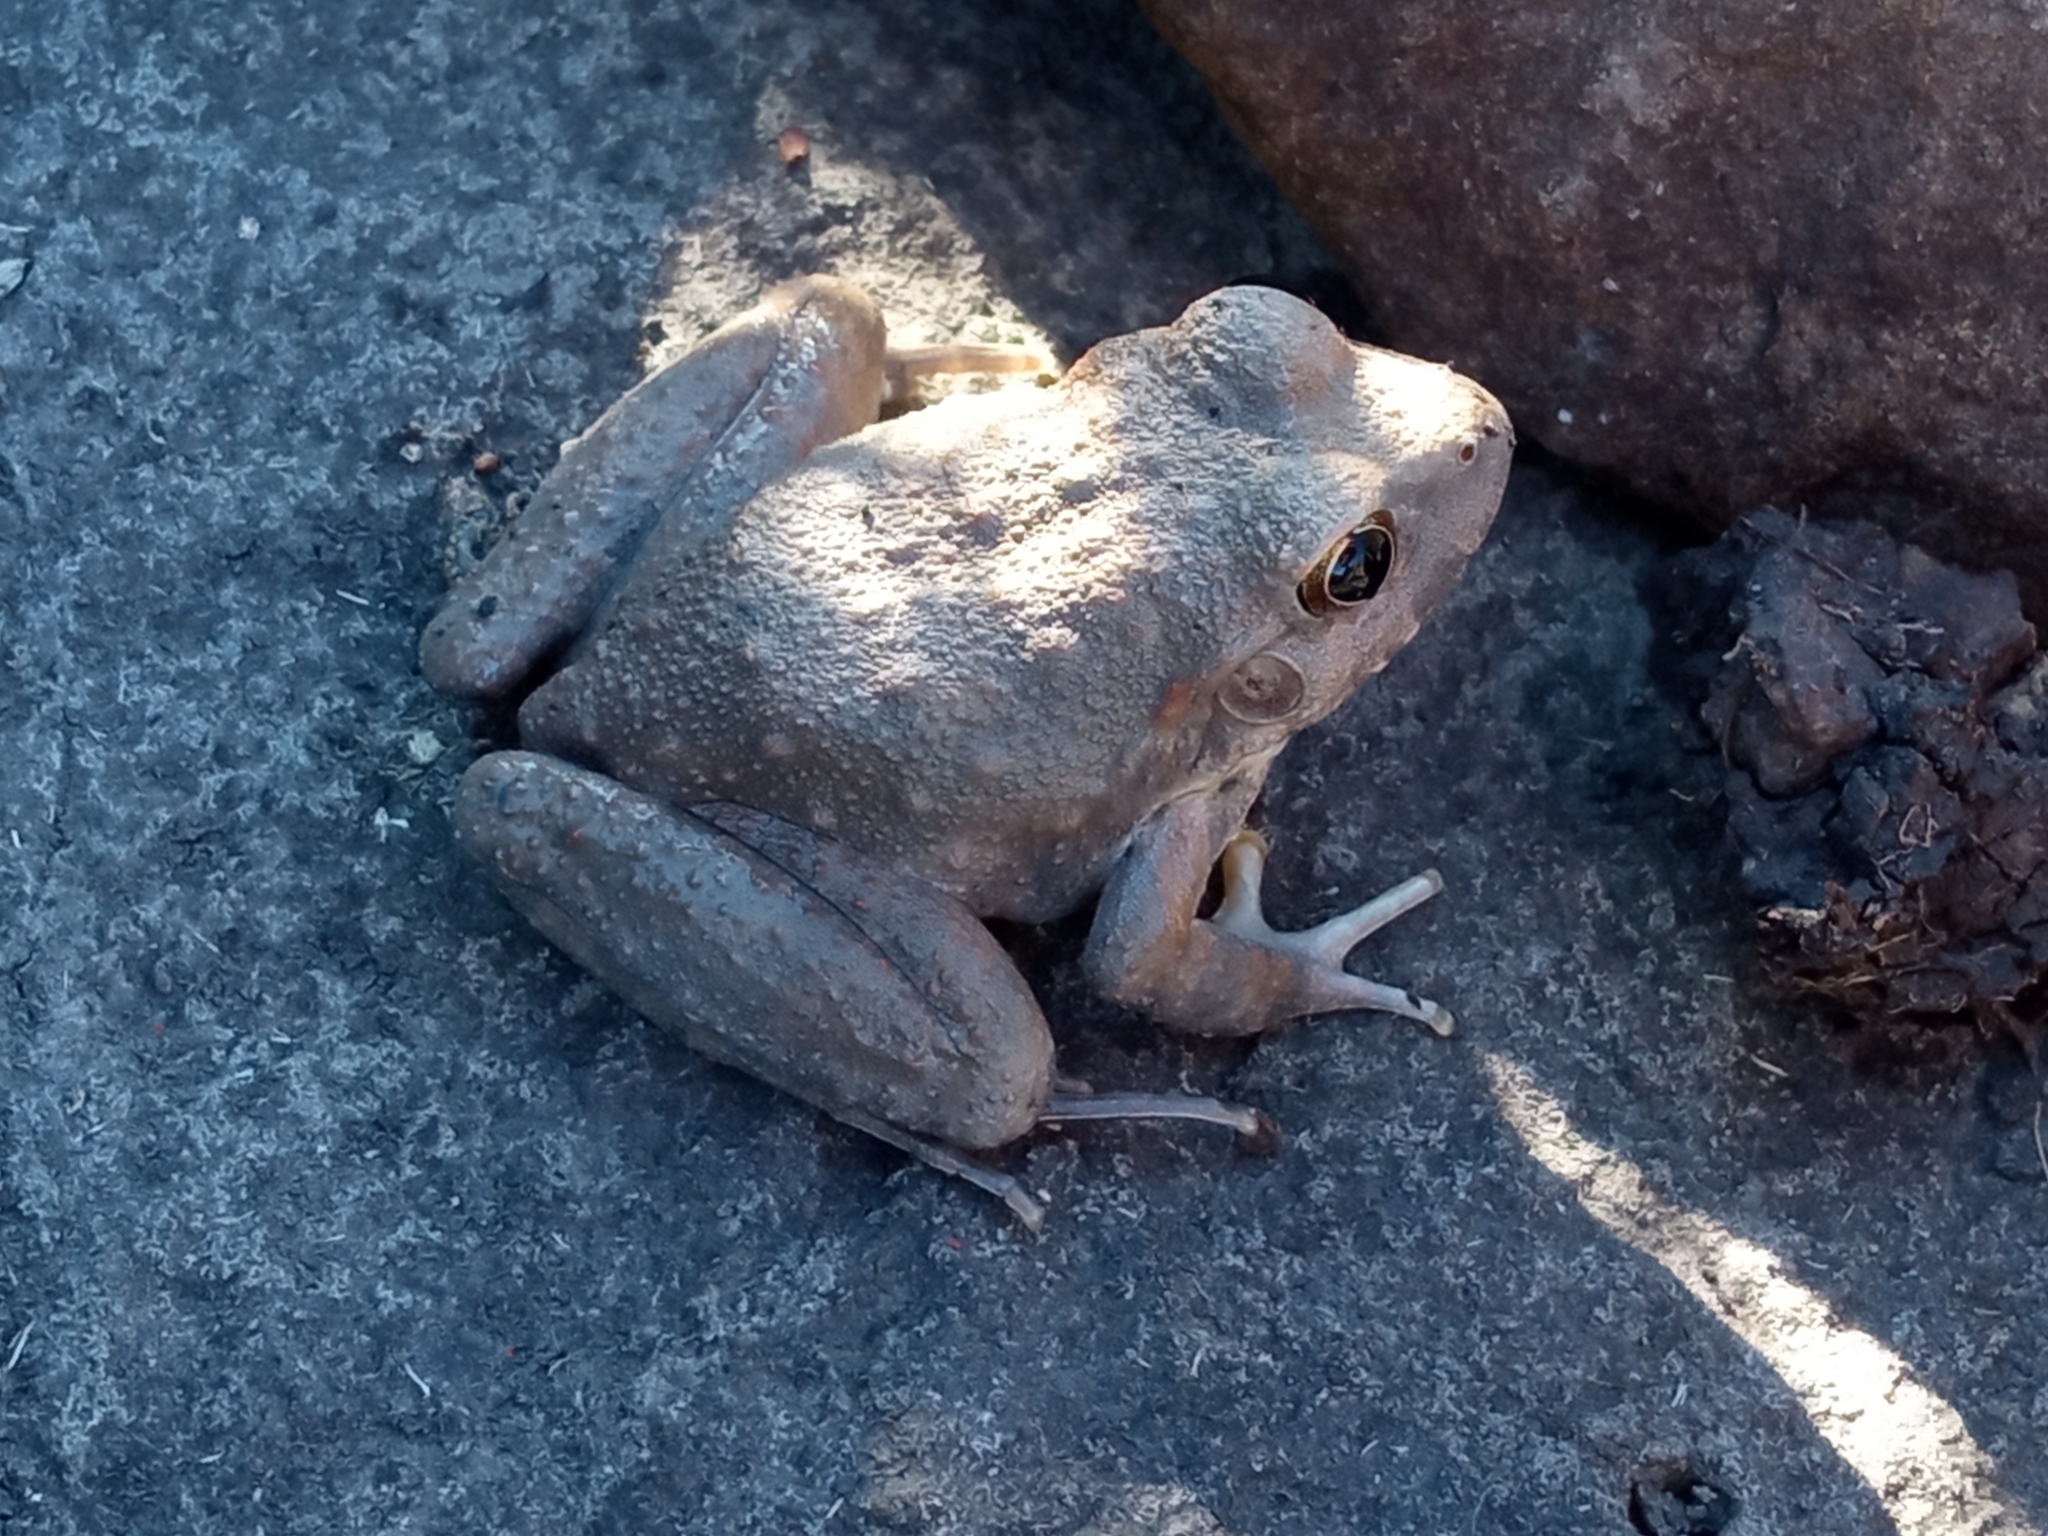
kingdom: Animalia
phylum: Chordata
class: Amphibia
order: Anura
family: Alsodidae
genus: Limnomedusa
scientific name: Limnomedusa macroglossa
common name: Rapids frog
